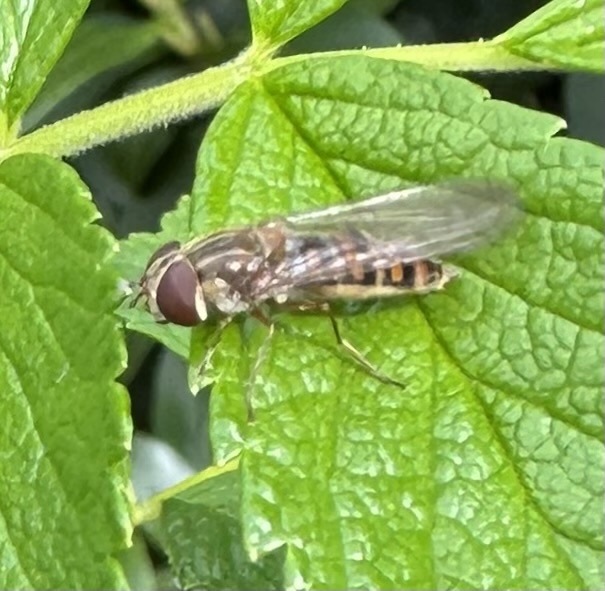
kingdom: Animalia
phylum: Arthropoda
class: Insecta
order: Diptera
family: Syrphidae
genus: Episyrphus
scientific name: Episyrphus balteatus
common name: Marmalade hoverfly
